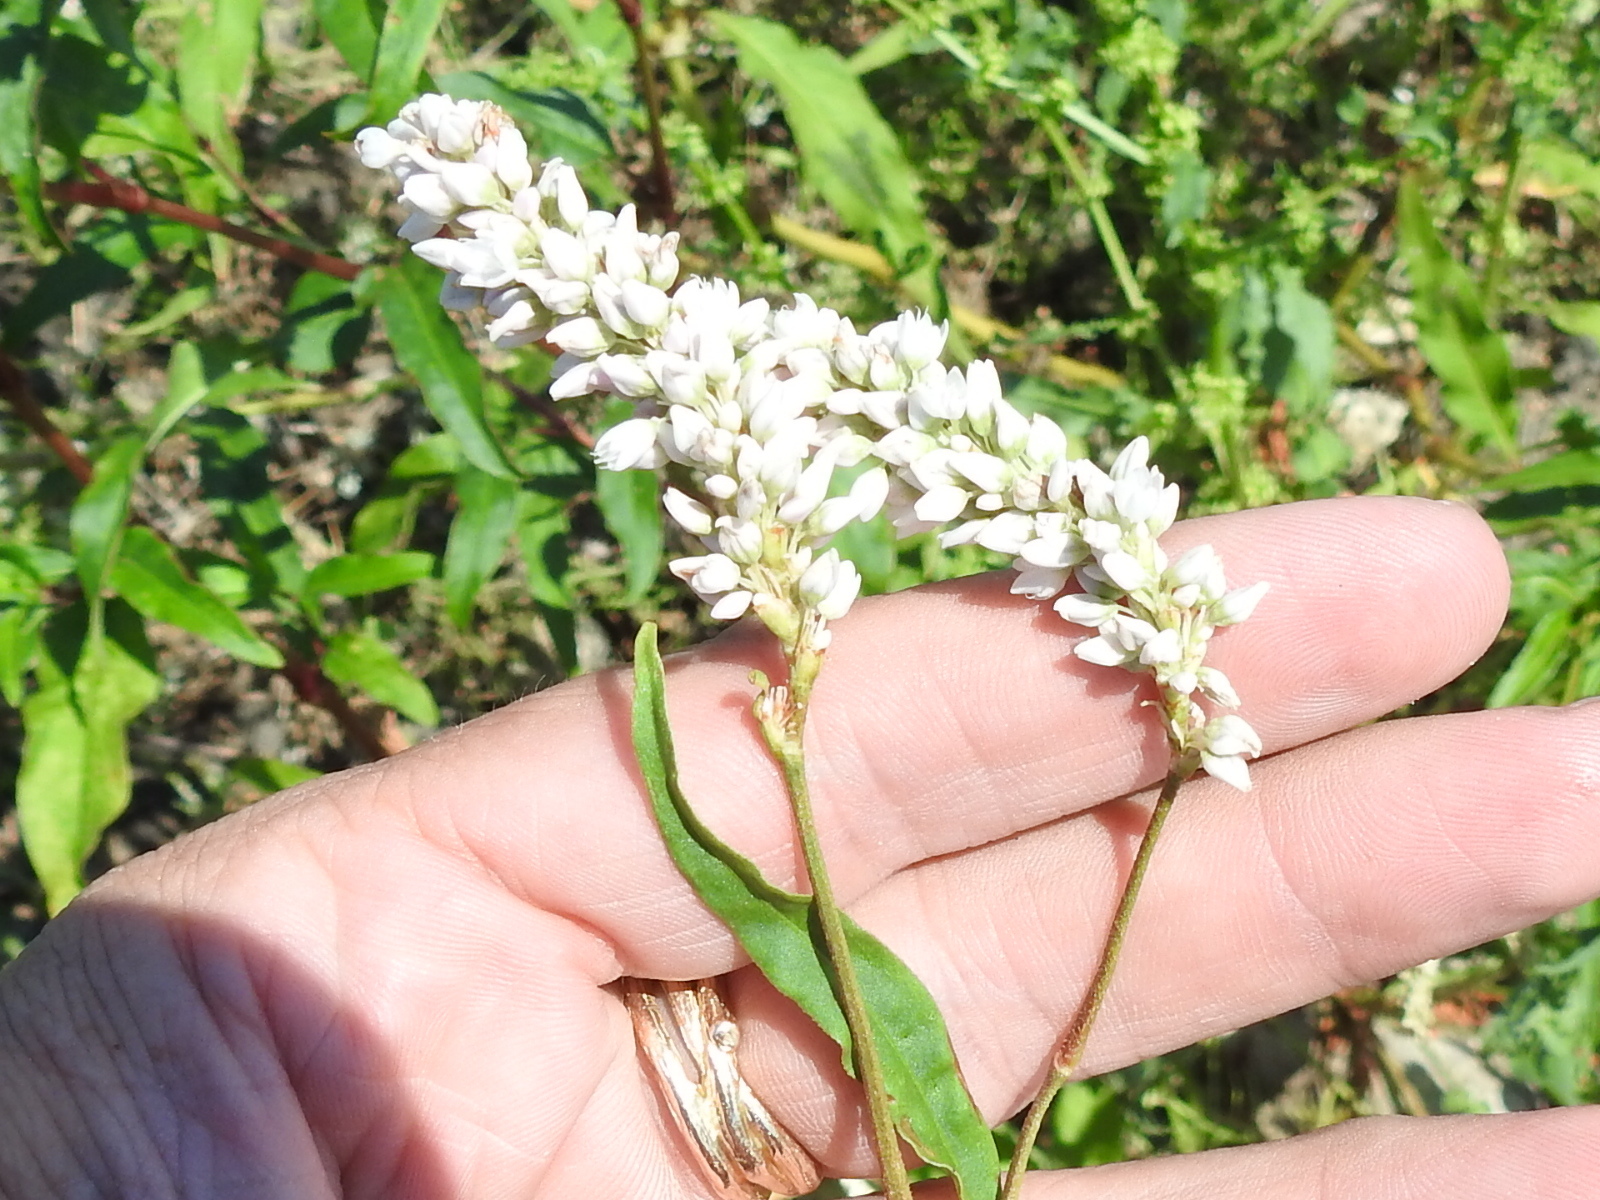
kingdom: Plantae
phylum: Tracheophyta
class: Magnoliopsida
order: Caryophyllales
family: Polygonaceae
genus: Persicaria
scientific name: Persicaria pensylvanica
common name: Pinkweed
